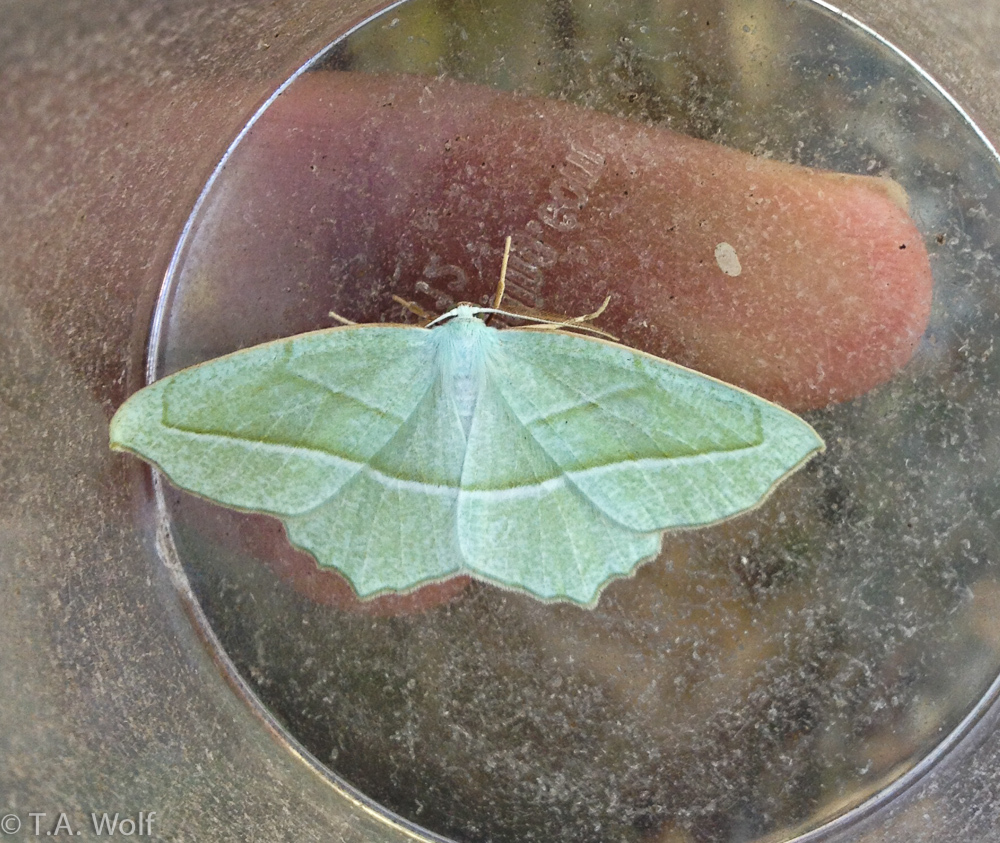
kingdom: Animalia
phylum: Arthropoda
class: Insecta
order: Lepidoptera
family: Geometridae
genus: Campaea
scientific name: Campaea perlata
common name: Fringed looper
